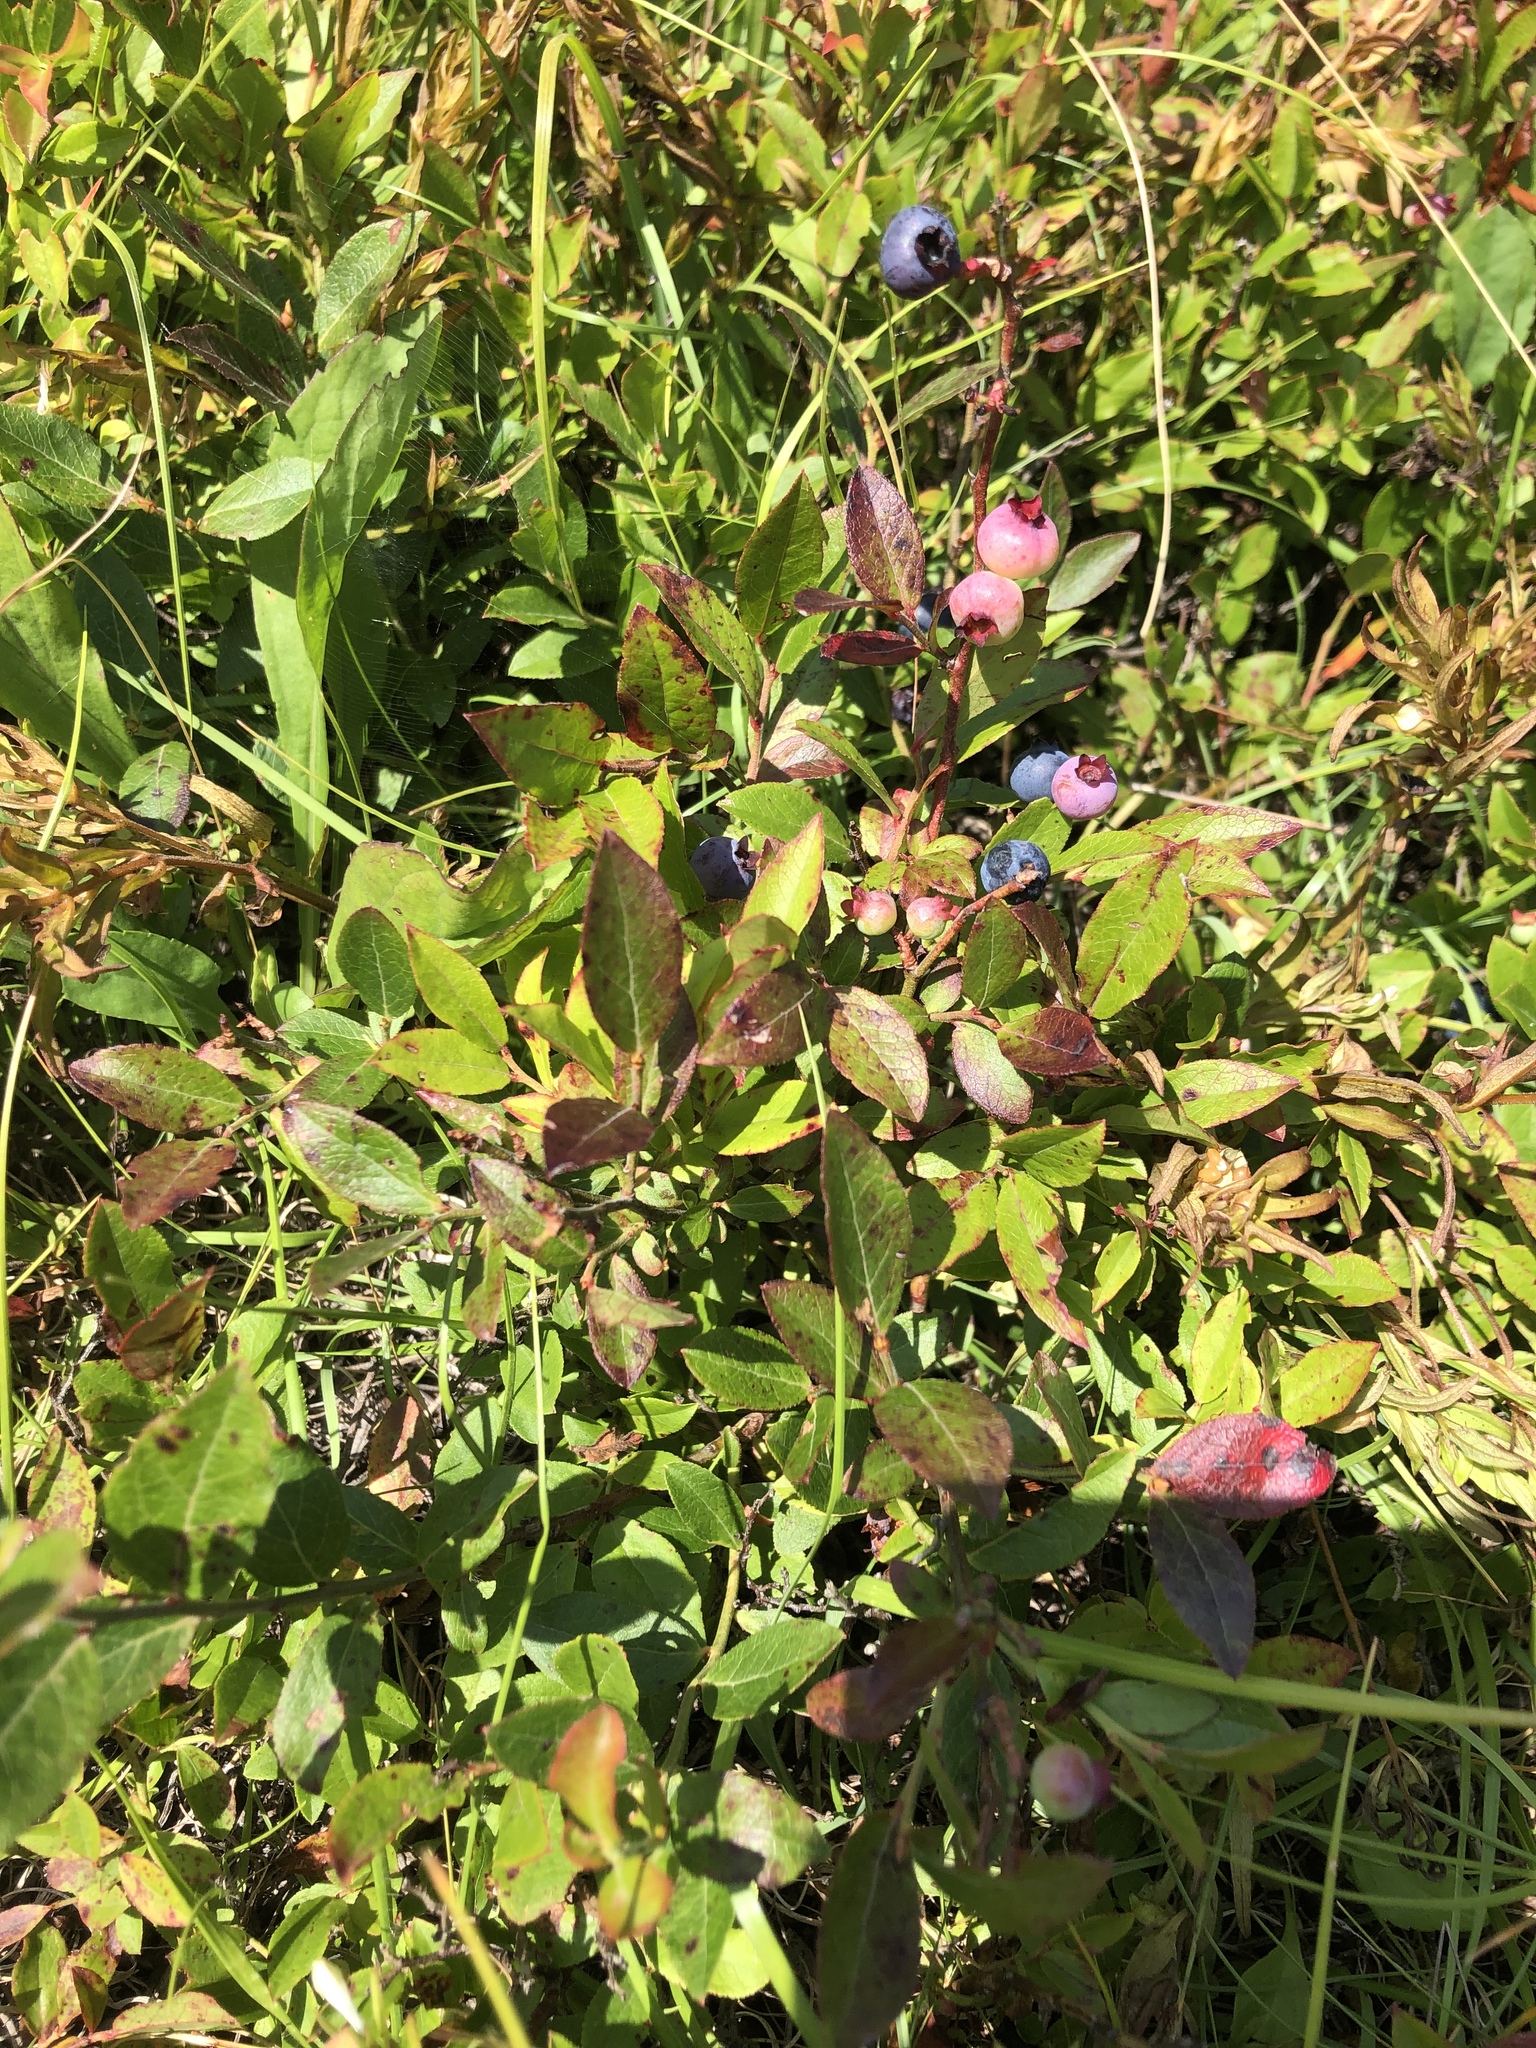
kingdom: Plantae
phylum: Tracheophyta
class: Magnoliopsida
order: Ericales
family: Ericaceae
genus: Vaccinium
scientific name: Vaccinium angustifolium
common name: Early lowbush blueberry
